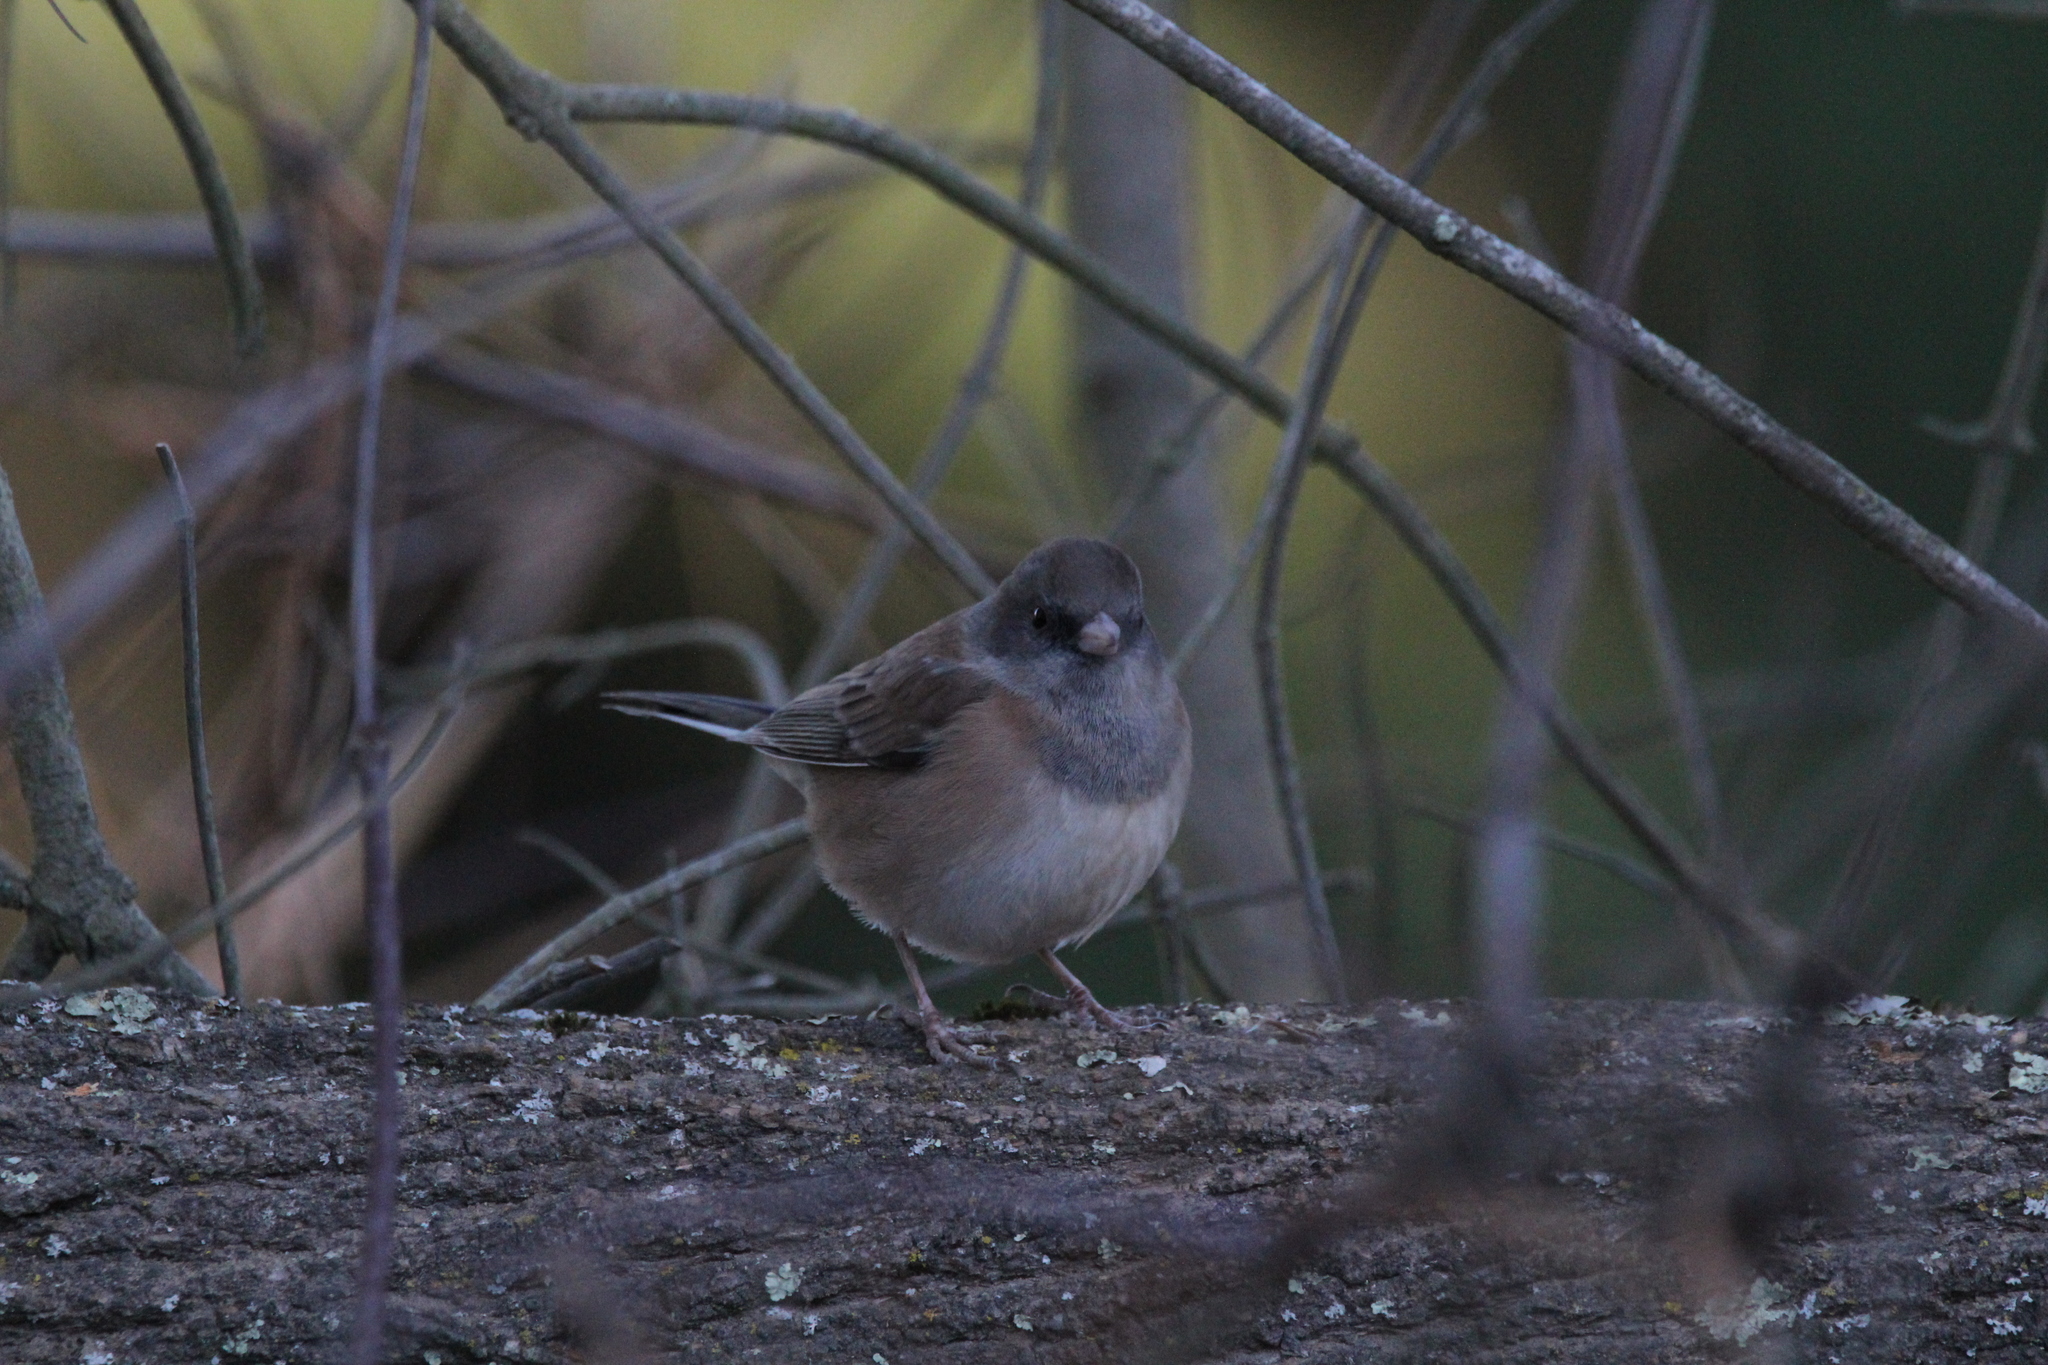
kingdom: Animalia
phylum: Chordata
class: Aves
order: Passeriformes
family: Passerellidae
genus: Junco
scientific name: Junco hyemalis
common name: Dark-eyed junco
